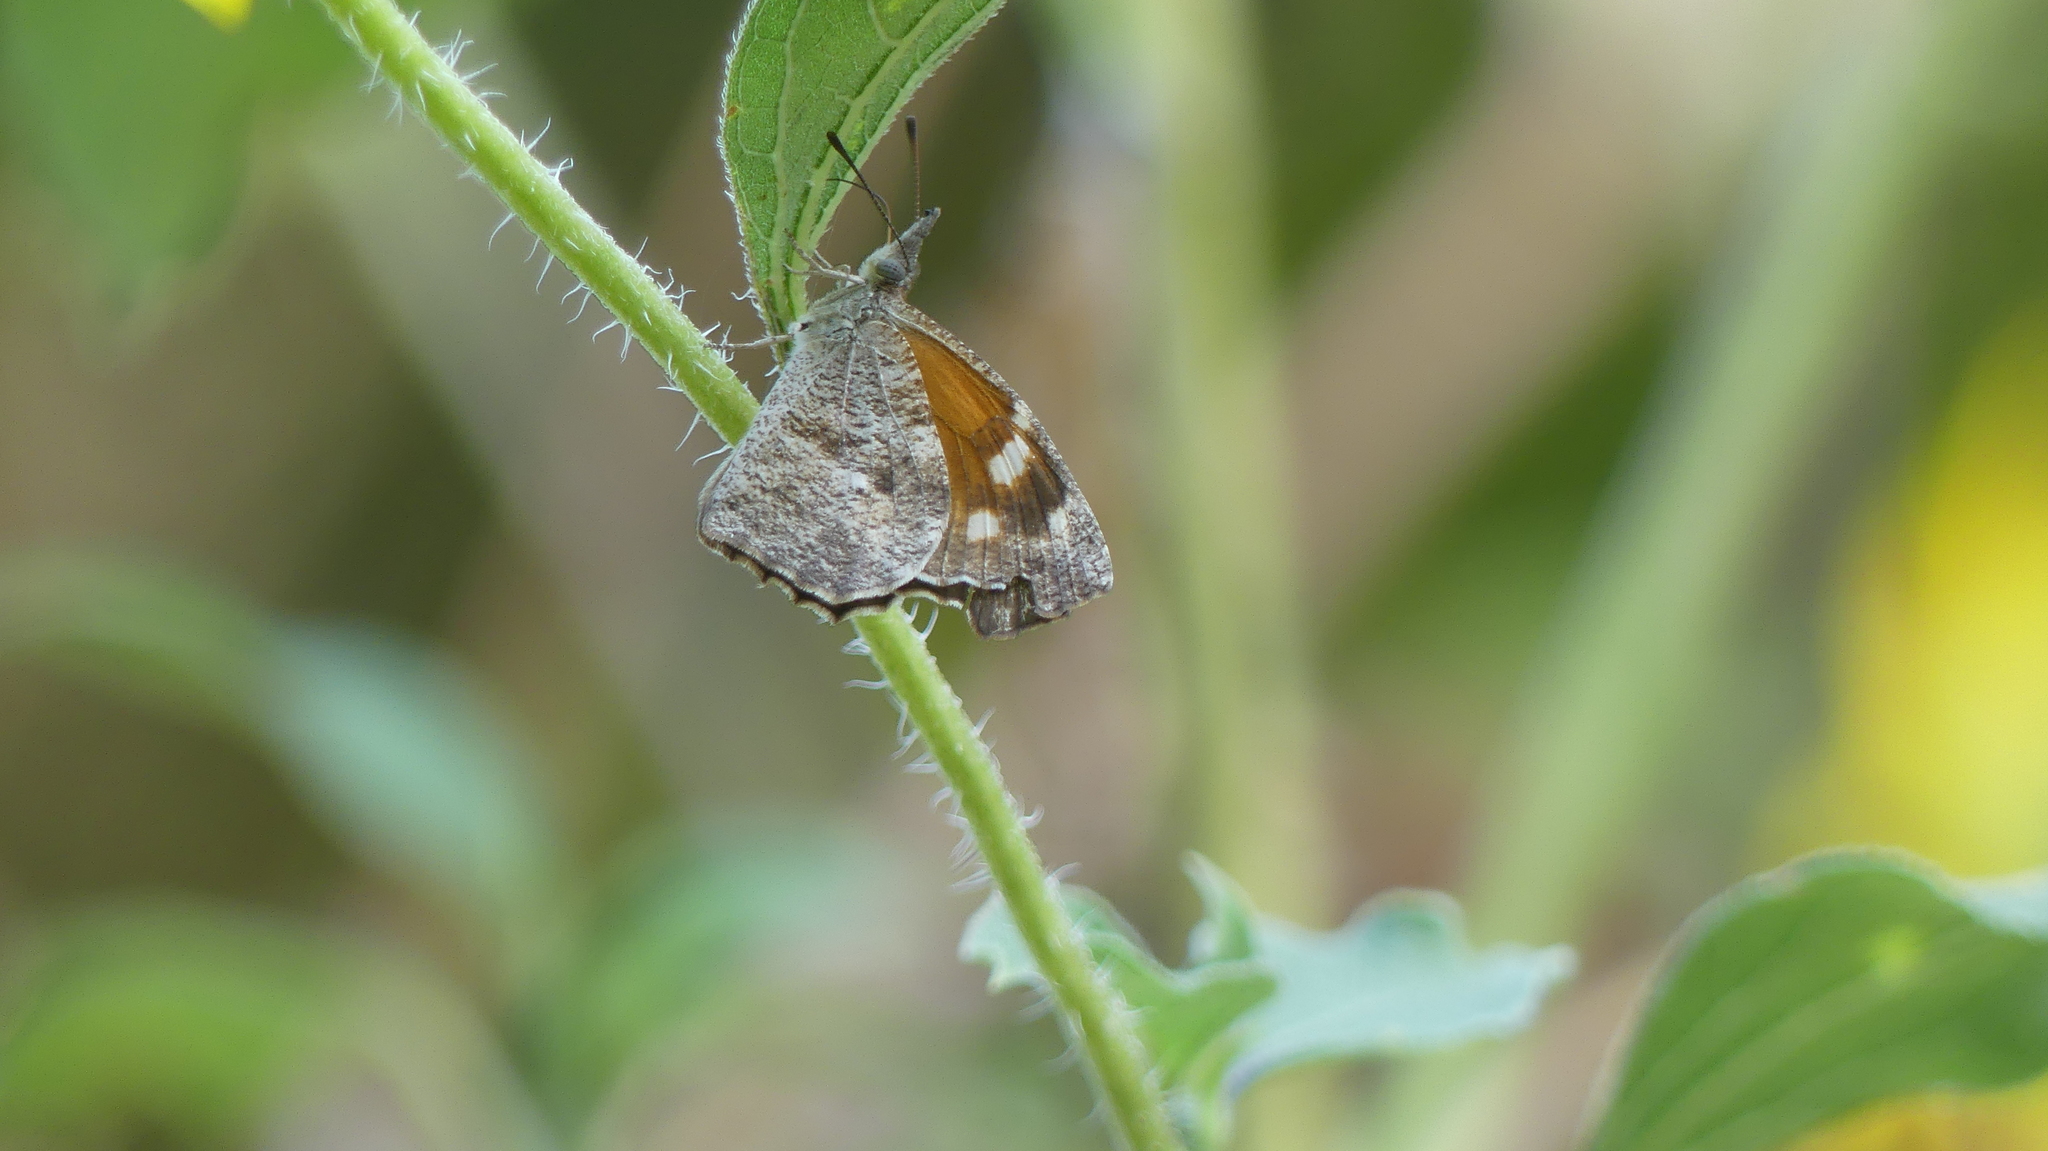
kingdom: Animalia
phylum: Arthropoda
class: Insecta
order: Lepidoptera
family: Nymphalidae
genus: Libytheana
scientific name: Libytheana carinenta
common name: American snout
